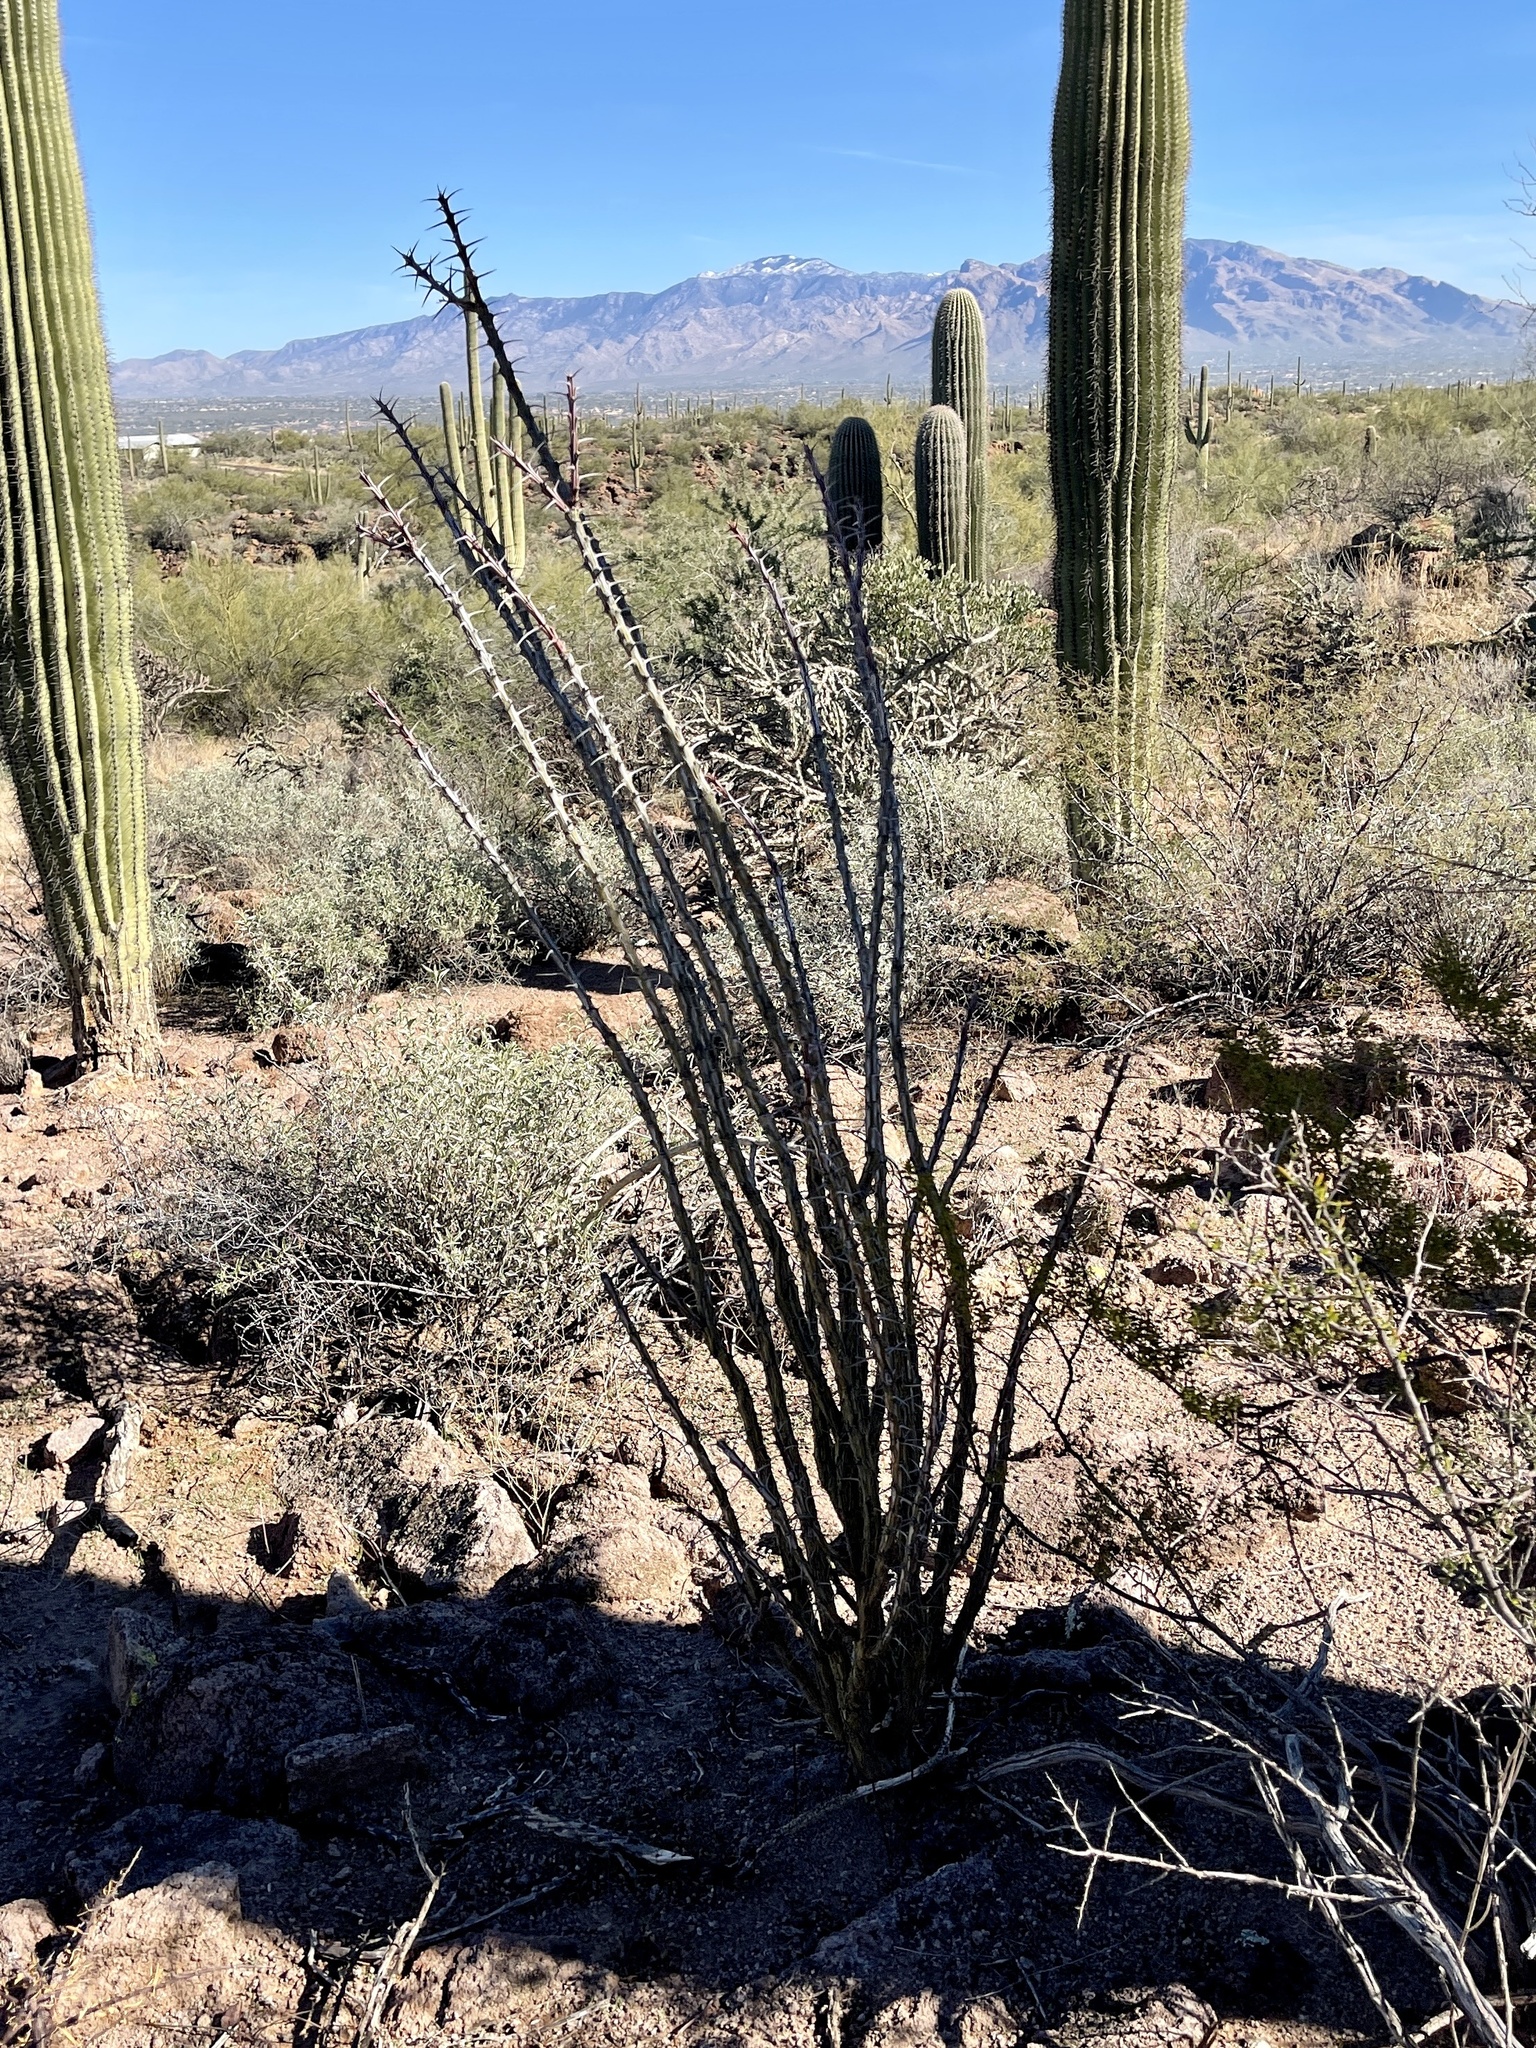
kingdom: Plantae
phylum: Tracheophyta
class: Magnoliopsida
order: Ericales
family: Fouquieriaceae
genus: Fouquieria
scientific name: Fouquieria splendens
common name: Vine-cactus
